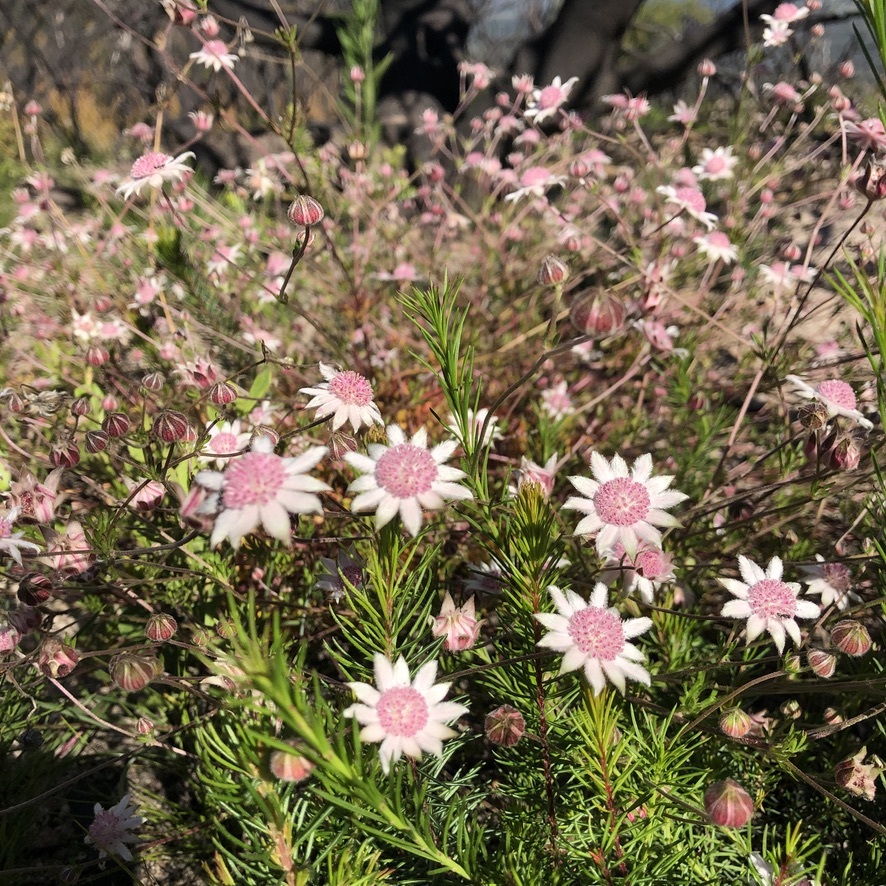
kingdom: Plantae
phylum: Tracheophyta
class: Magnoliopsida
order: Apiales
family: Apiaceae
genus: Actinotus
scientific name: Actinotus forsythii
